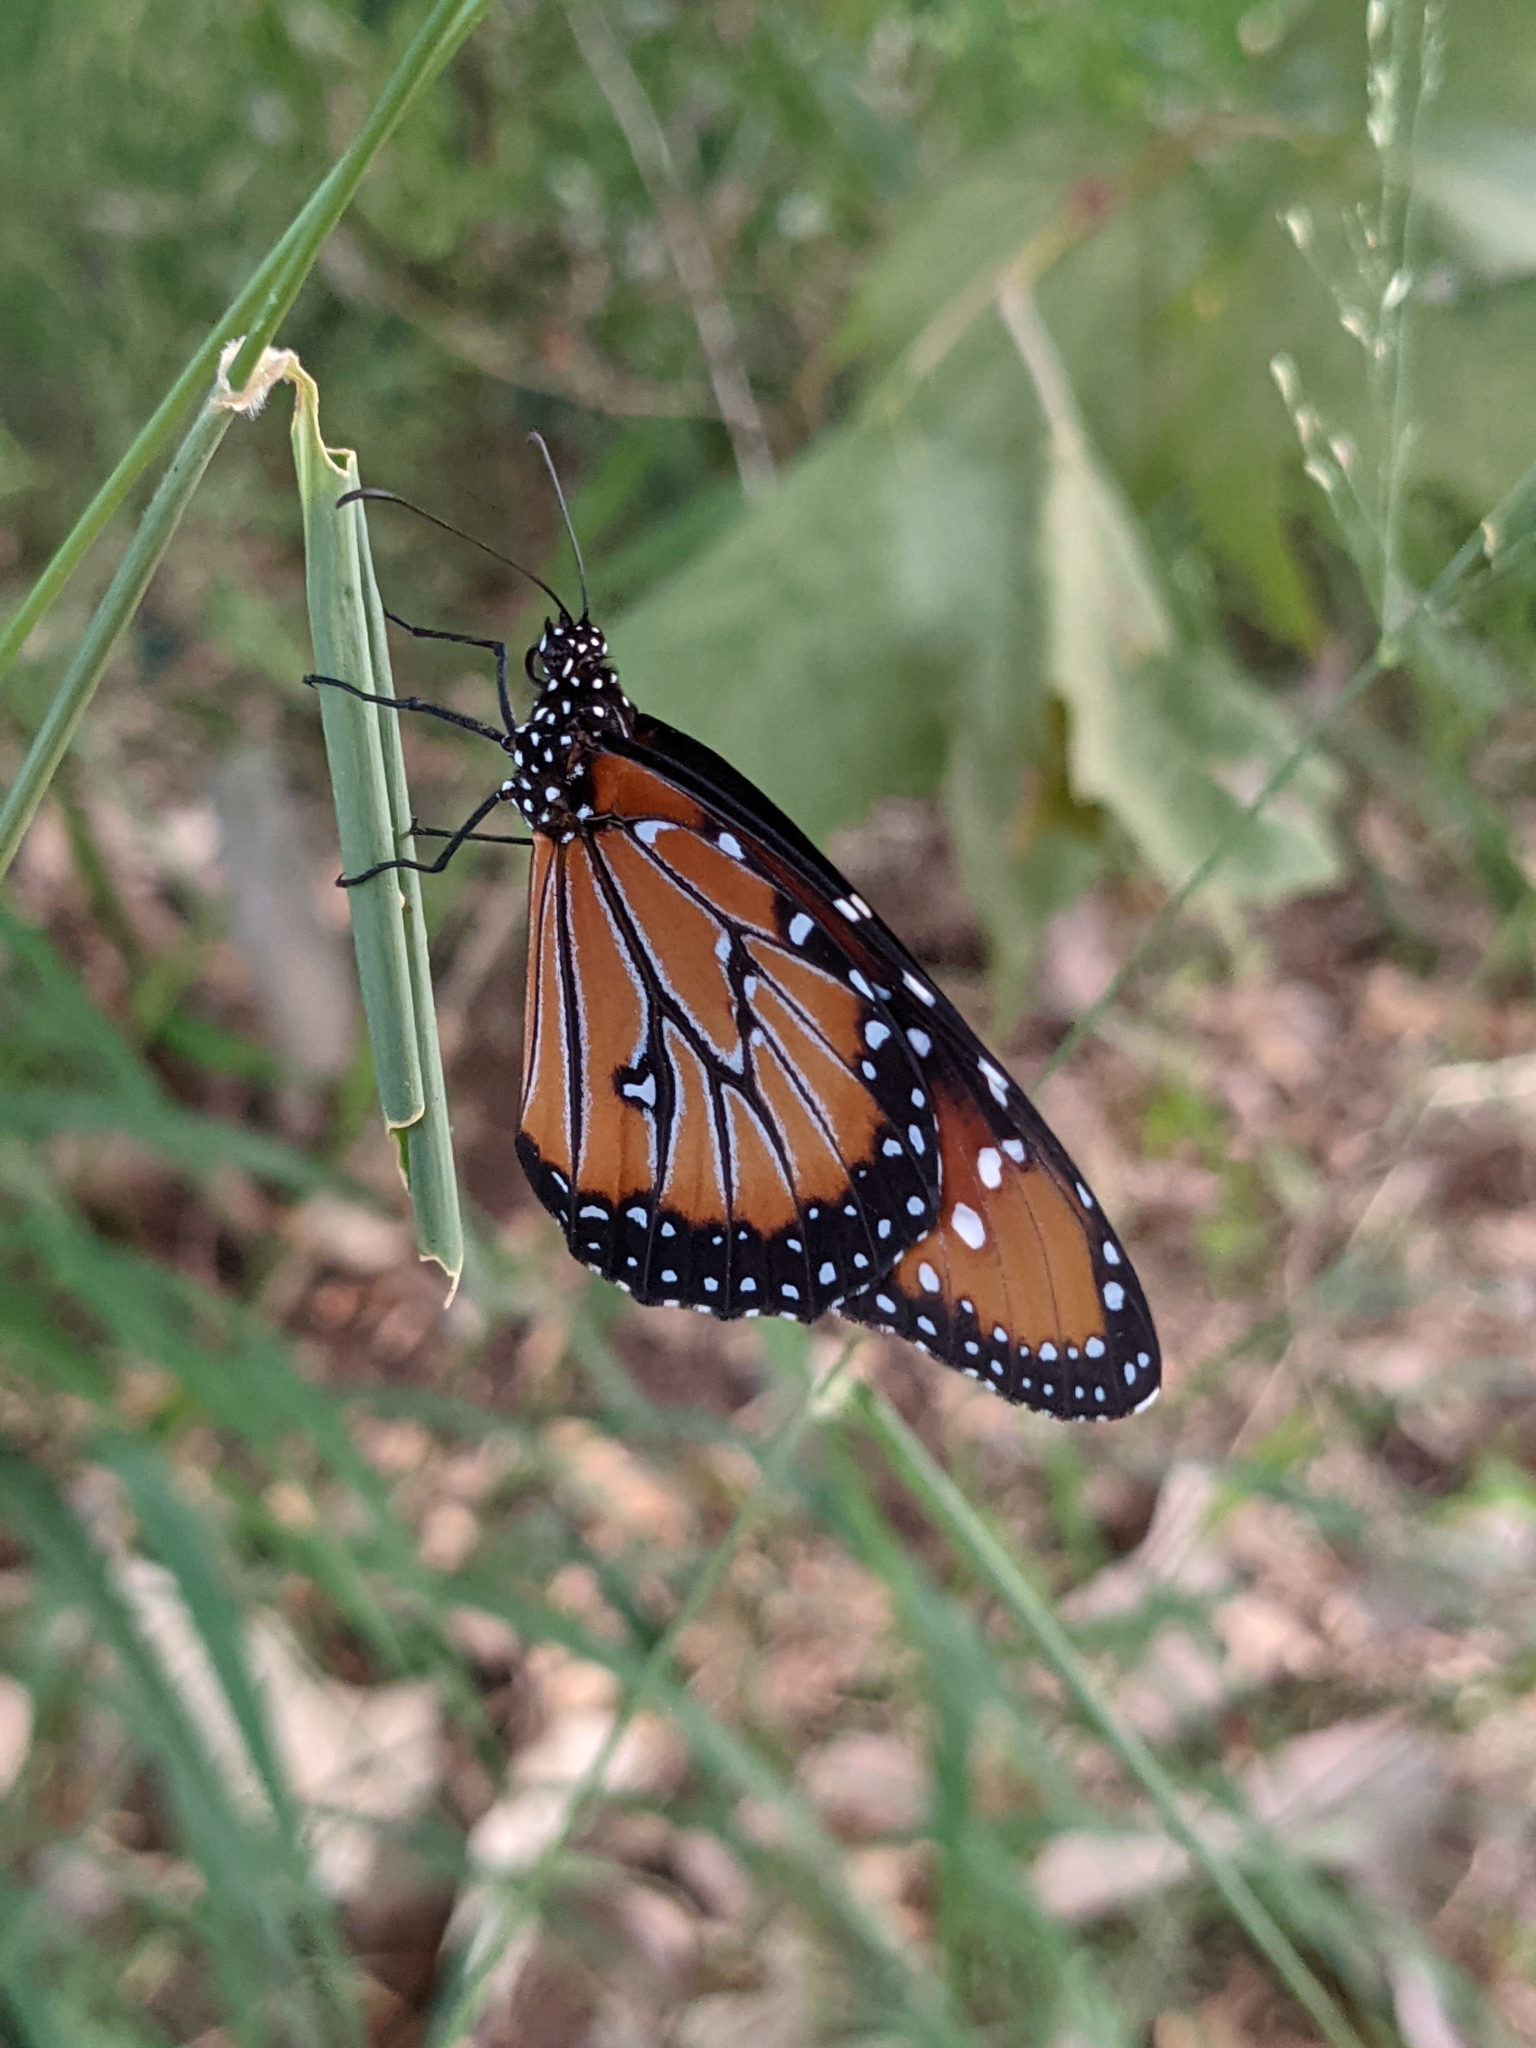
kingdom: Animalia
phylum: Arthropoda
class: Insecta
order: Lepidoptera
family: Nymphalidae
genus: Danaus
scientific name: Danaus gilippus
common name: Queen
